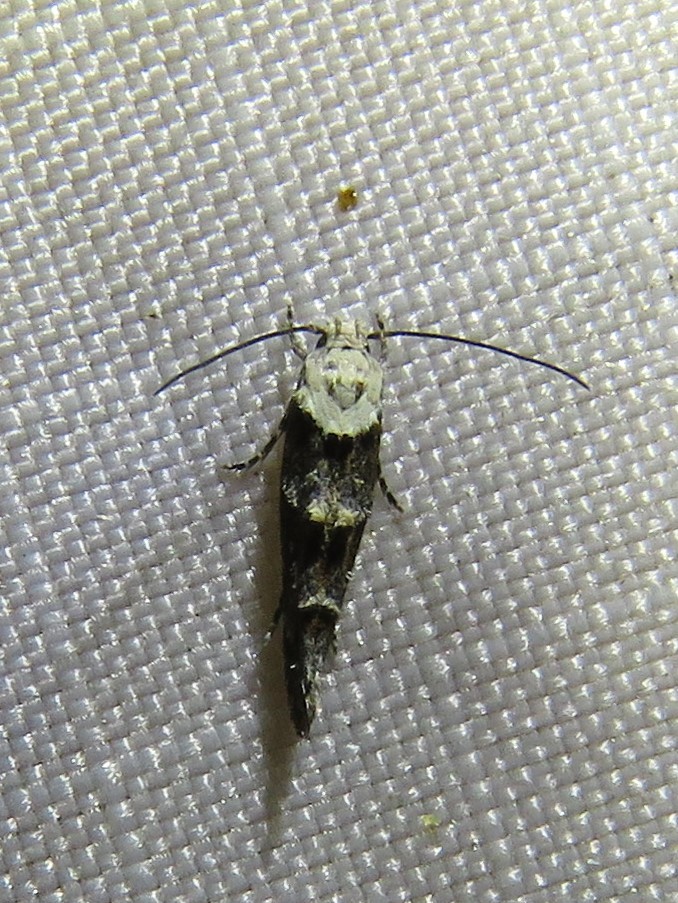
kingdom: Animalia
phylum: Arthropoda
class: Insecta
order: Lepidoptera
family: Momphidae
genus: Mompha
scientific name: Mompha albocapitella
